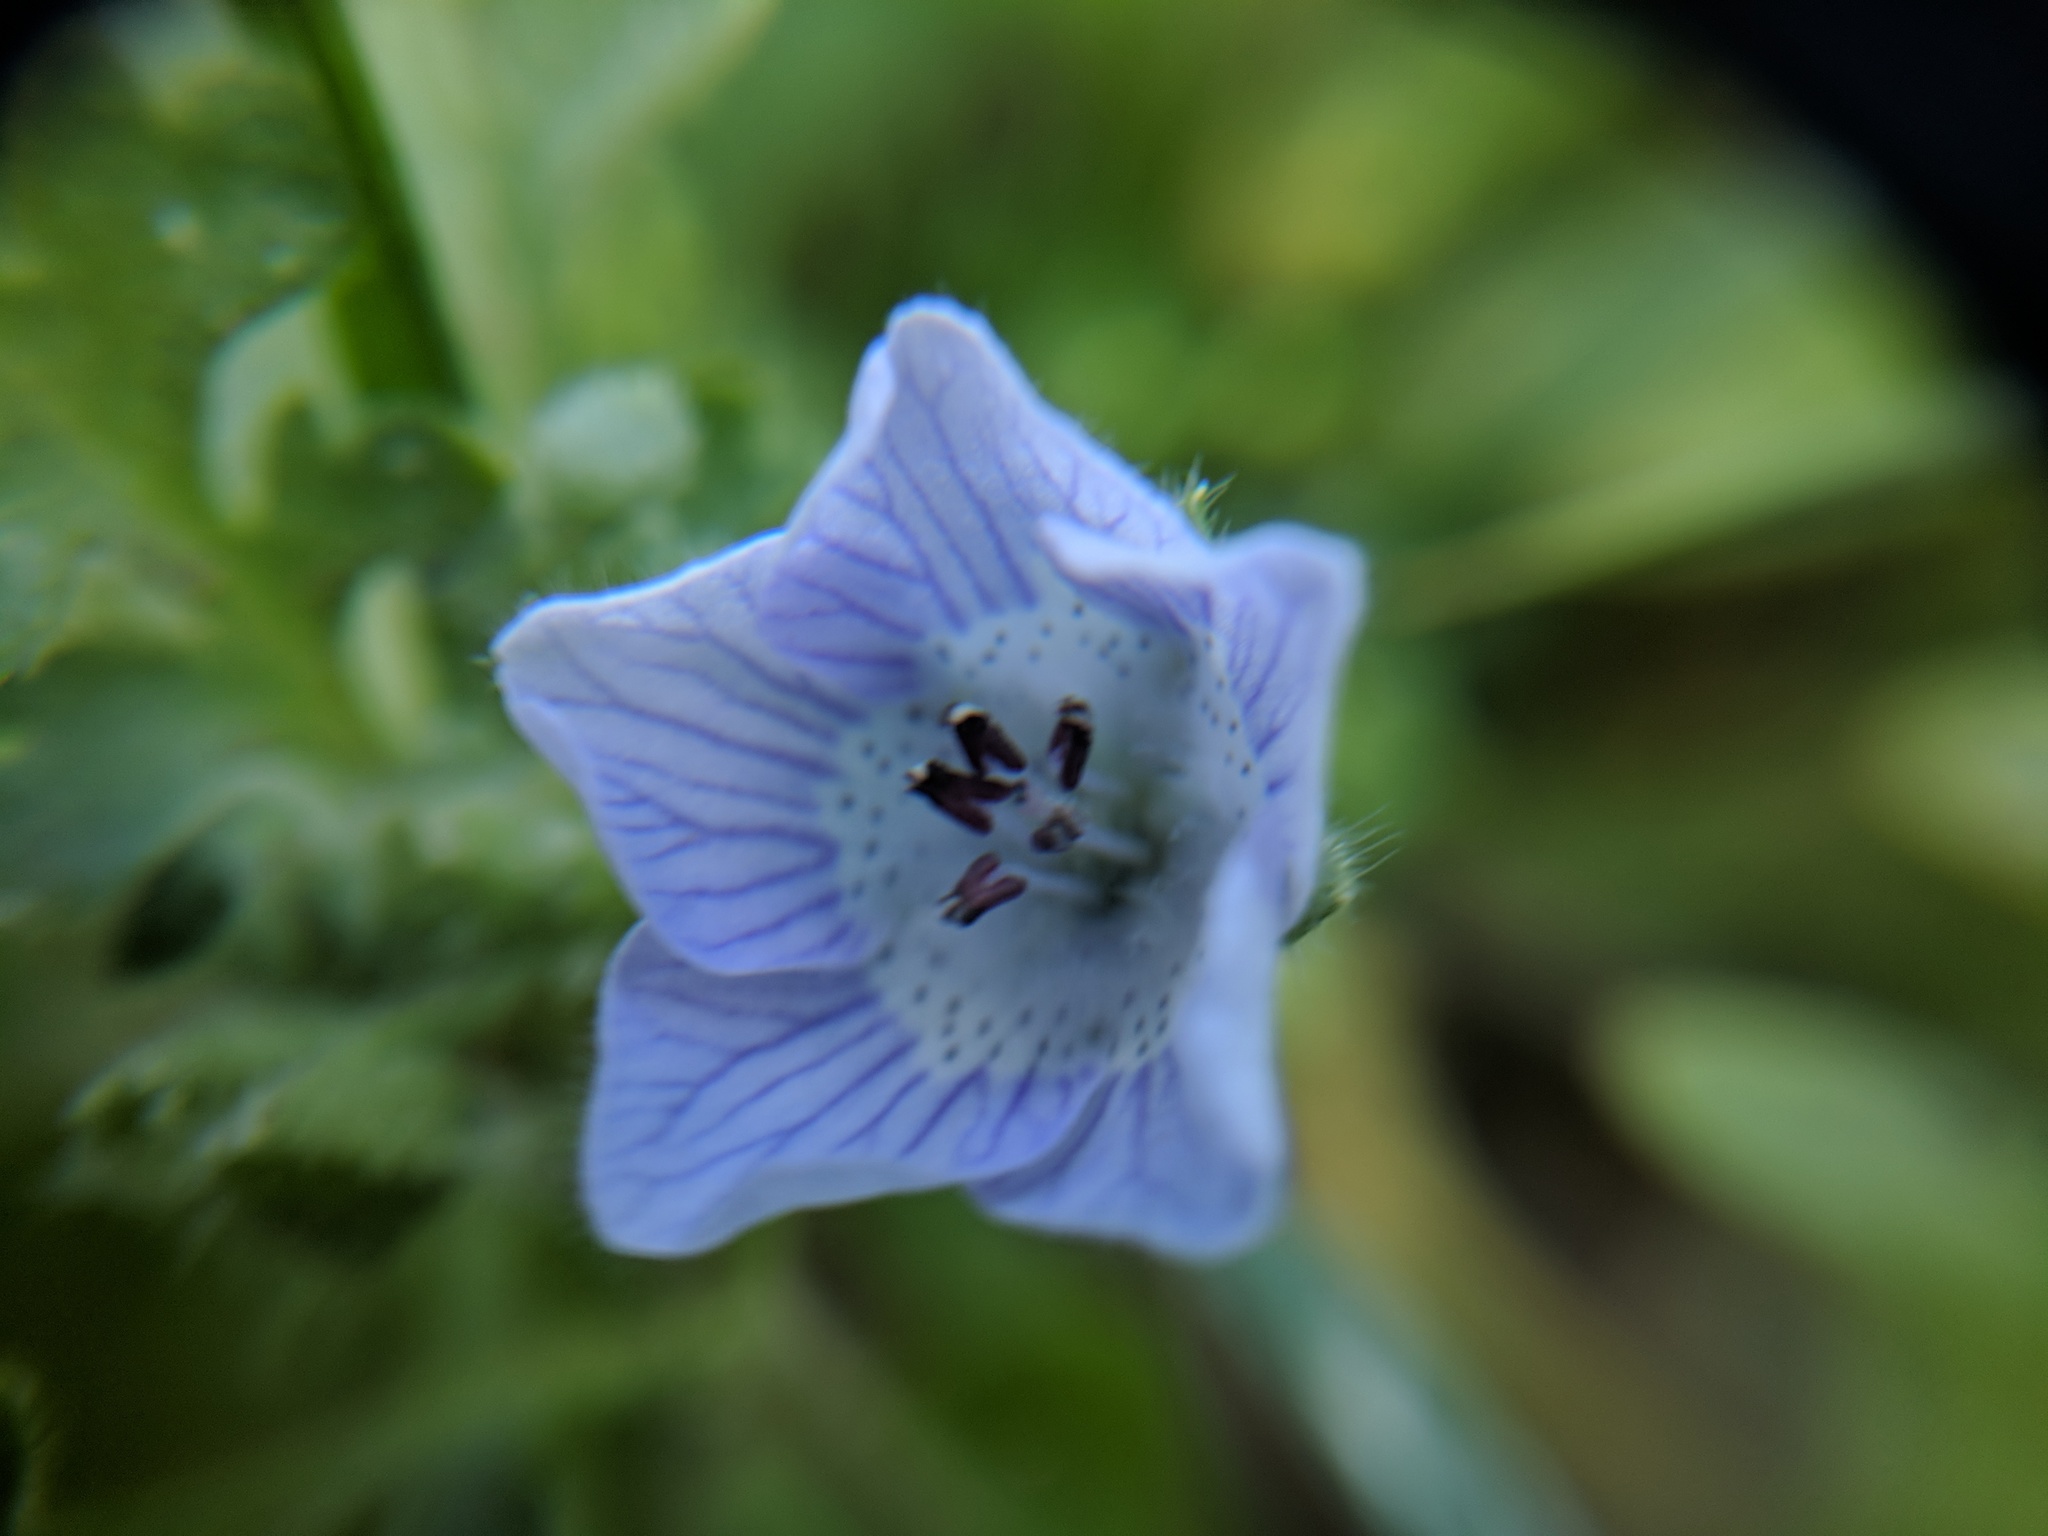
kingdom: Plantae
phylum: Tracheophyta
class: Magnoliopsida
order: Boraginales
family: Hydrophyllaceae
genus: Nemophila
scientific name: Nemophila menziesii
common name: Baby's-blue-eyes
